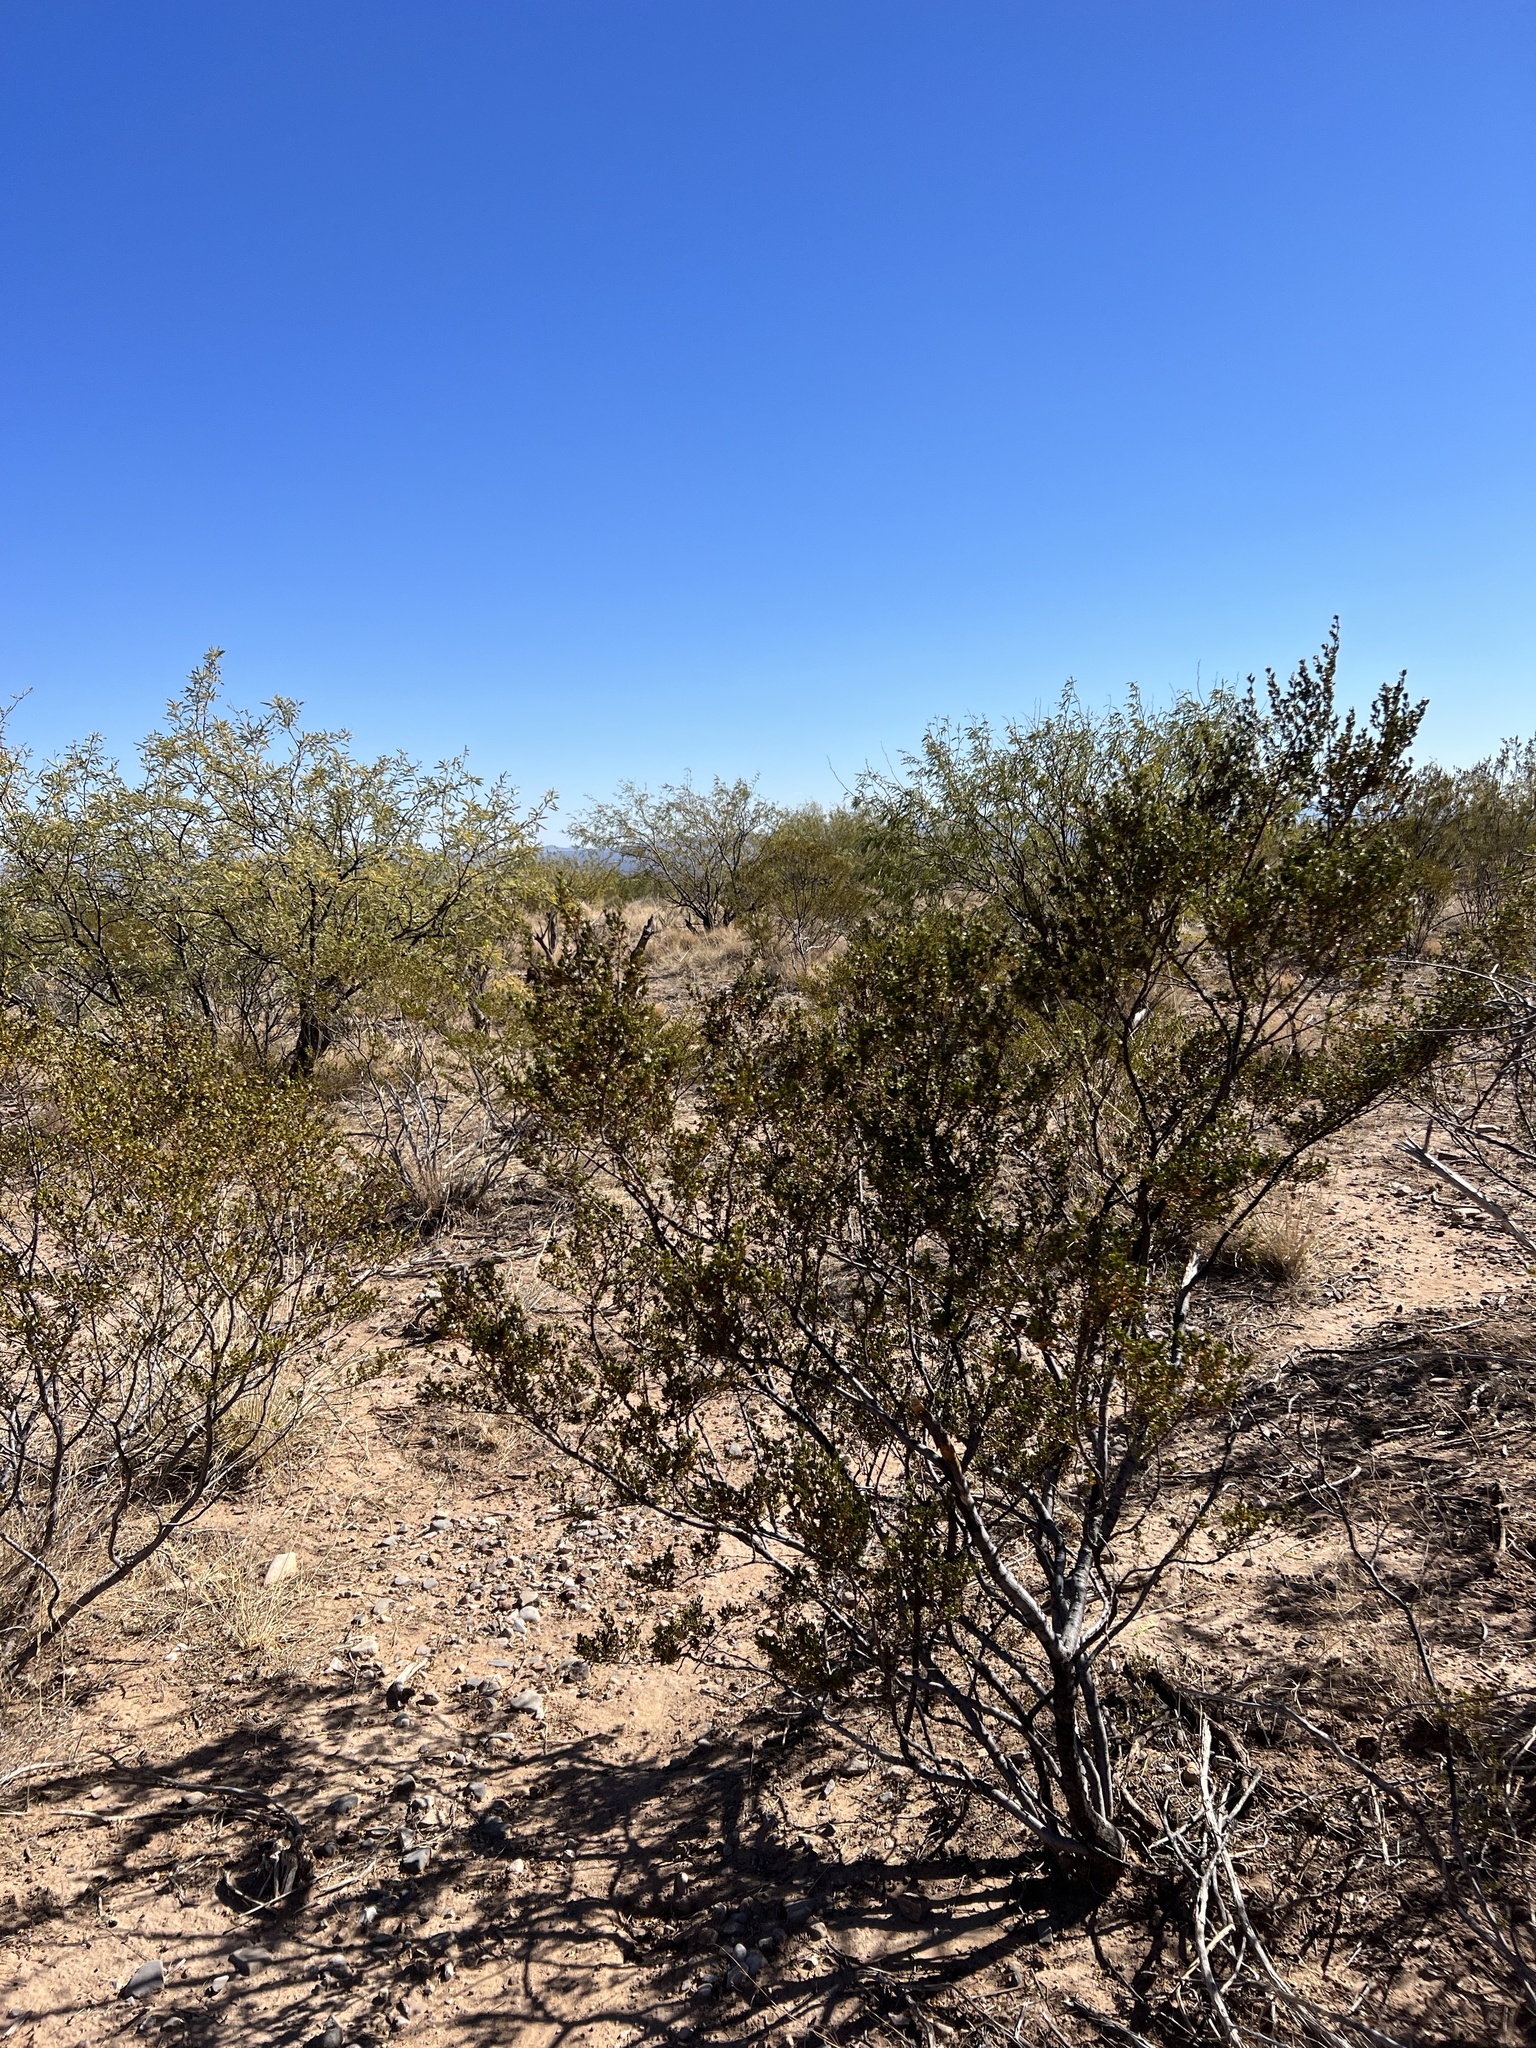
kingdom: Plantae
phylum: Tracheophyta
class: Magnoliopsida
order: Zygophyllales
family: Zygophyllaceae
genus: Larrea
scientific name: Larrea tridentata
